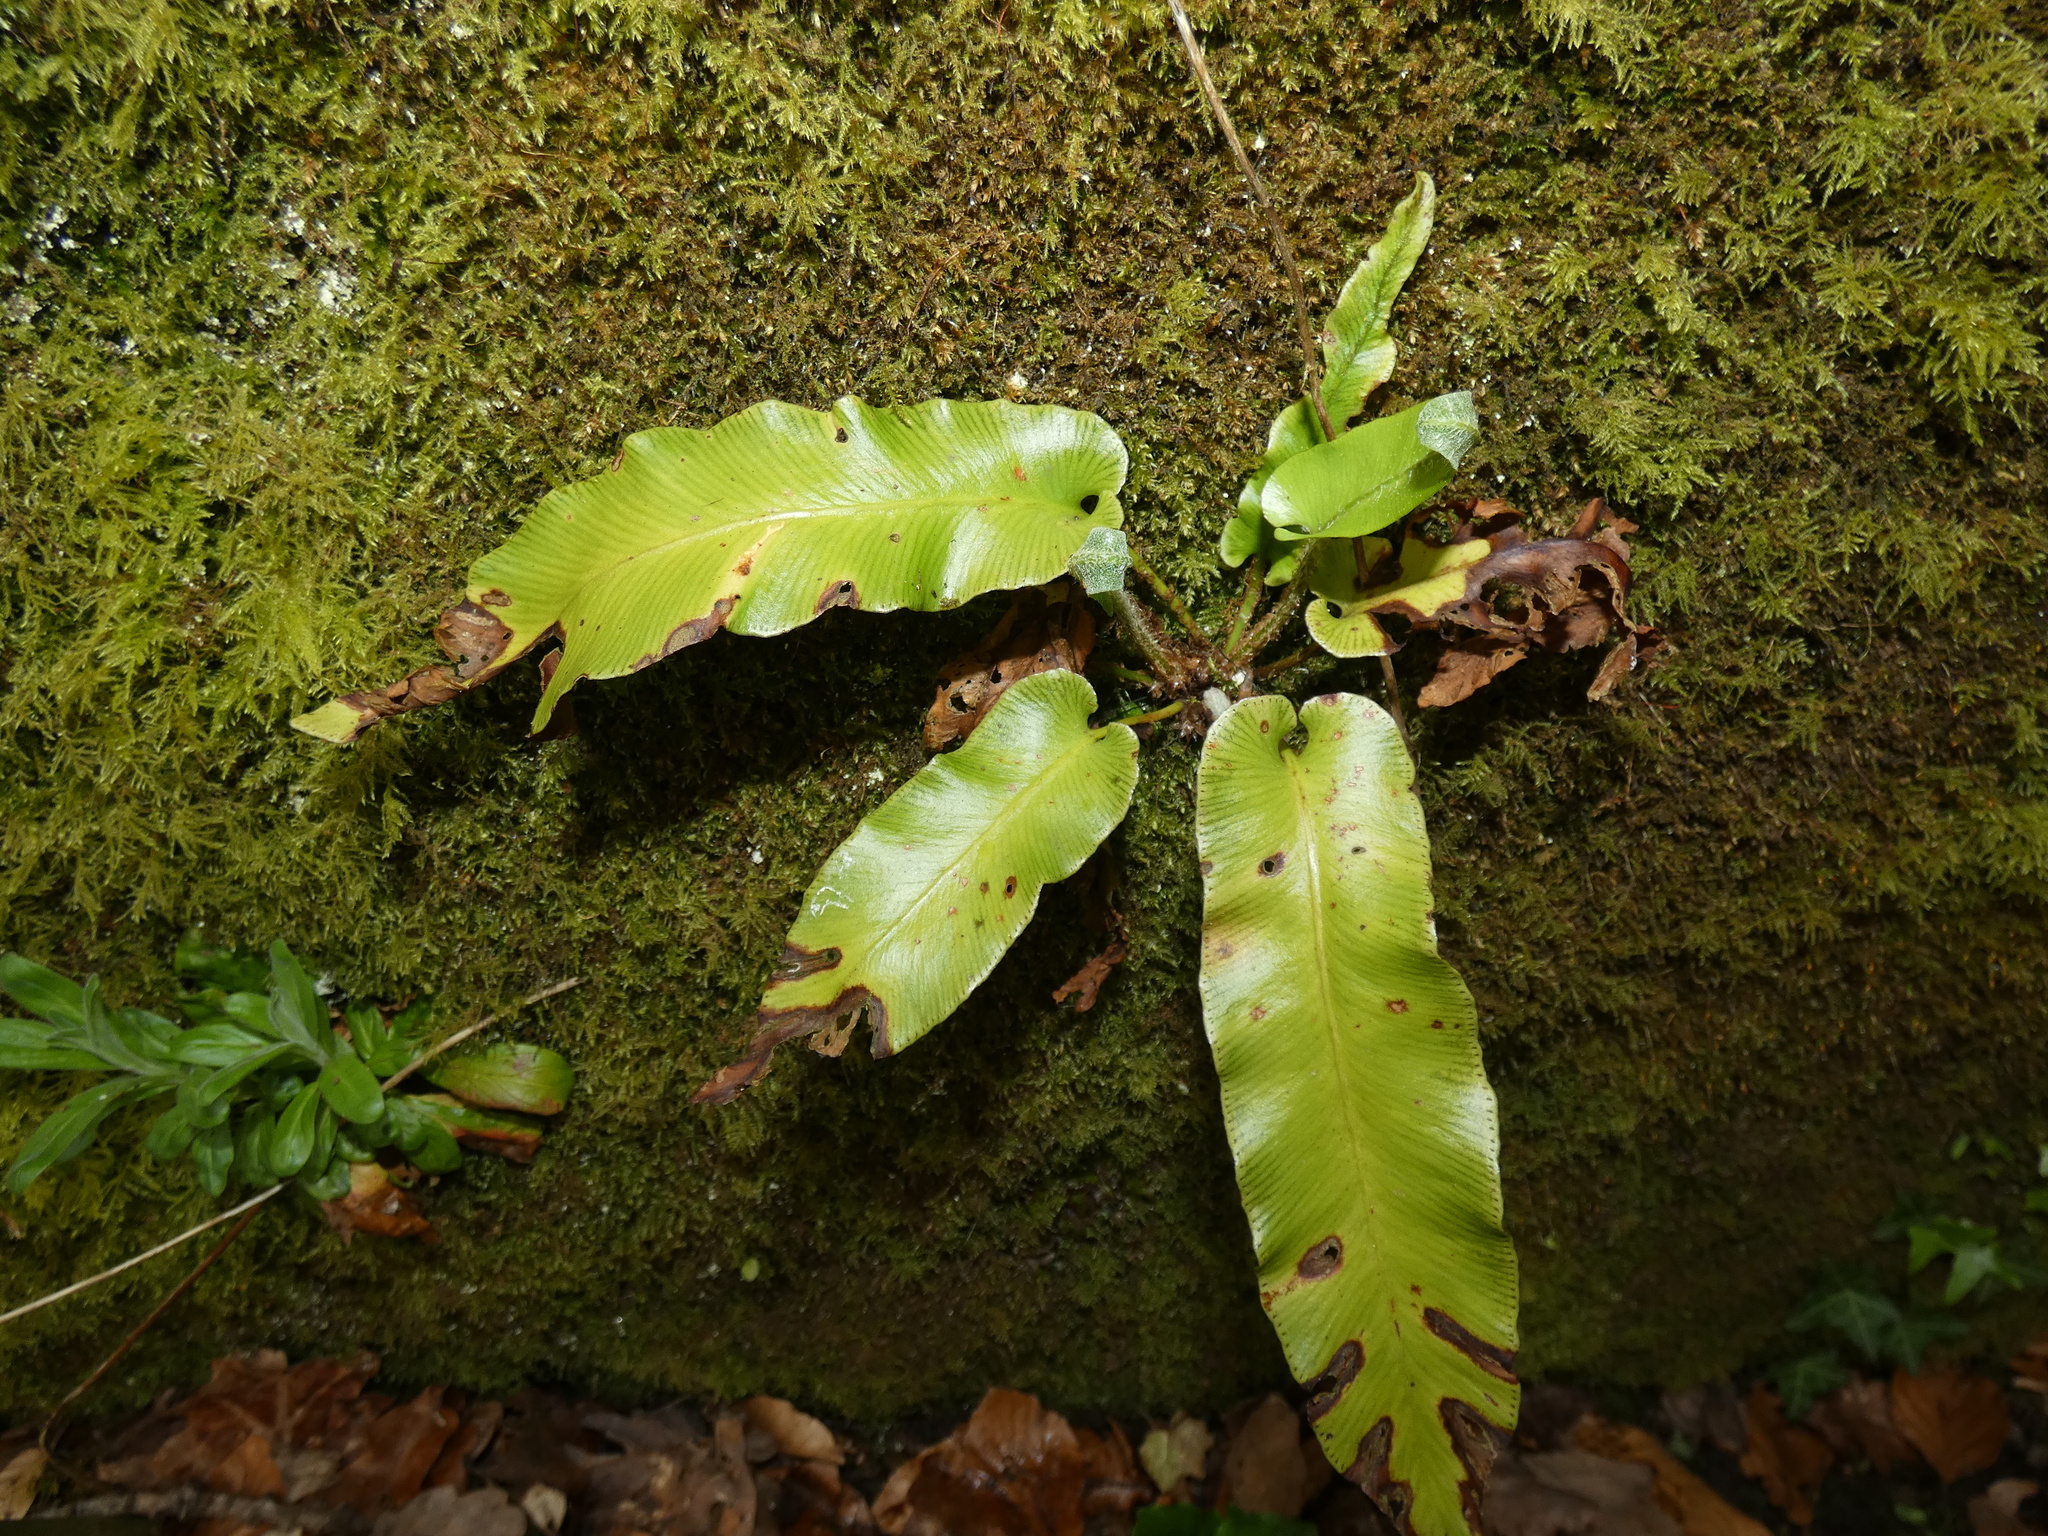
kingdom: Plantae
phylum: Tracheophyta
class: Polypodiopsida
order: Polypodiales
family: Aspleniaceae
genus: Asplenium
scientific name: Asplenium scolopendrium
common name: Hart's-tongue fern
